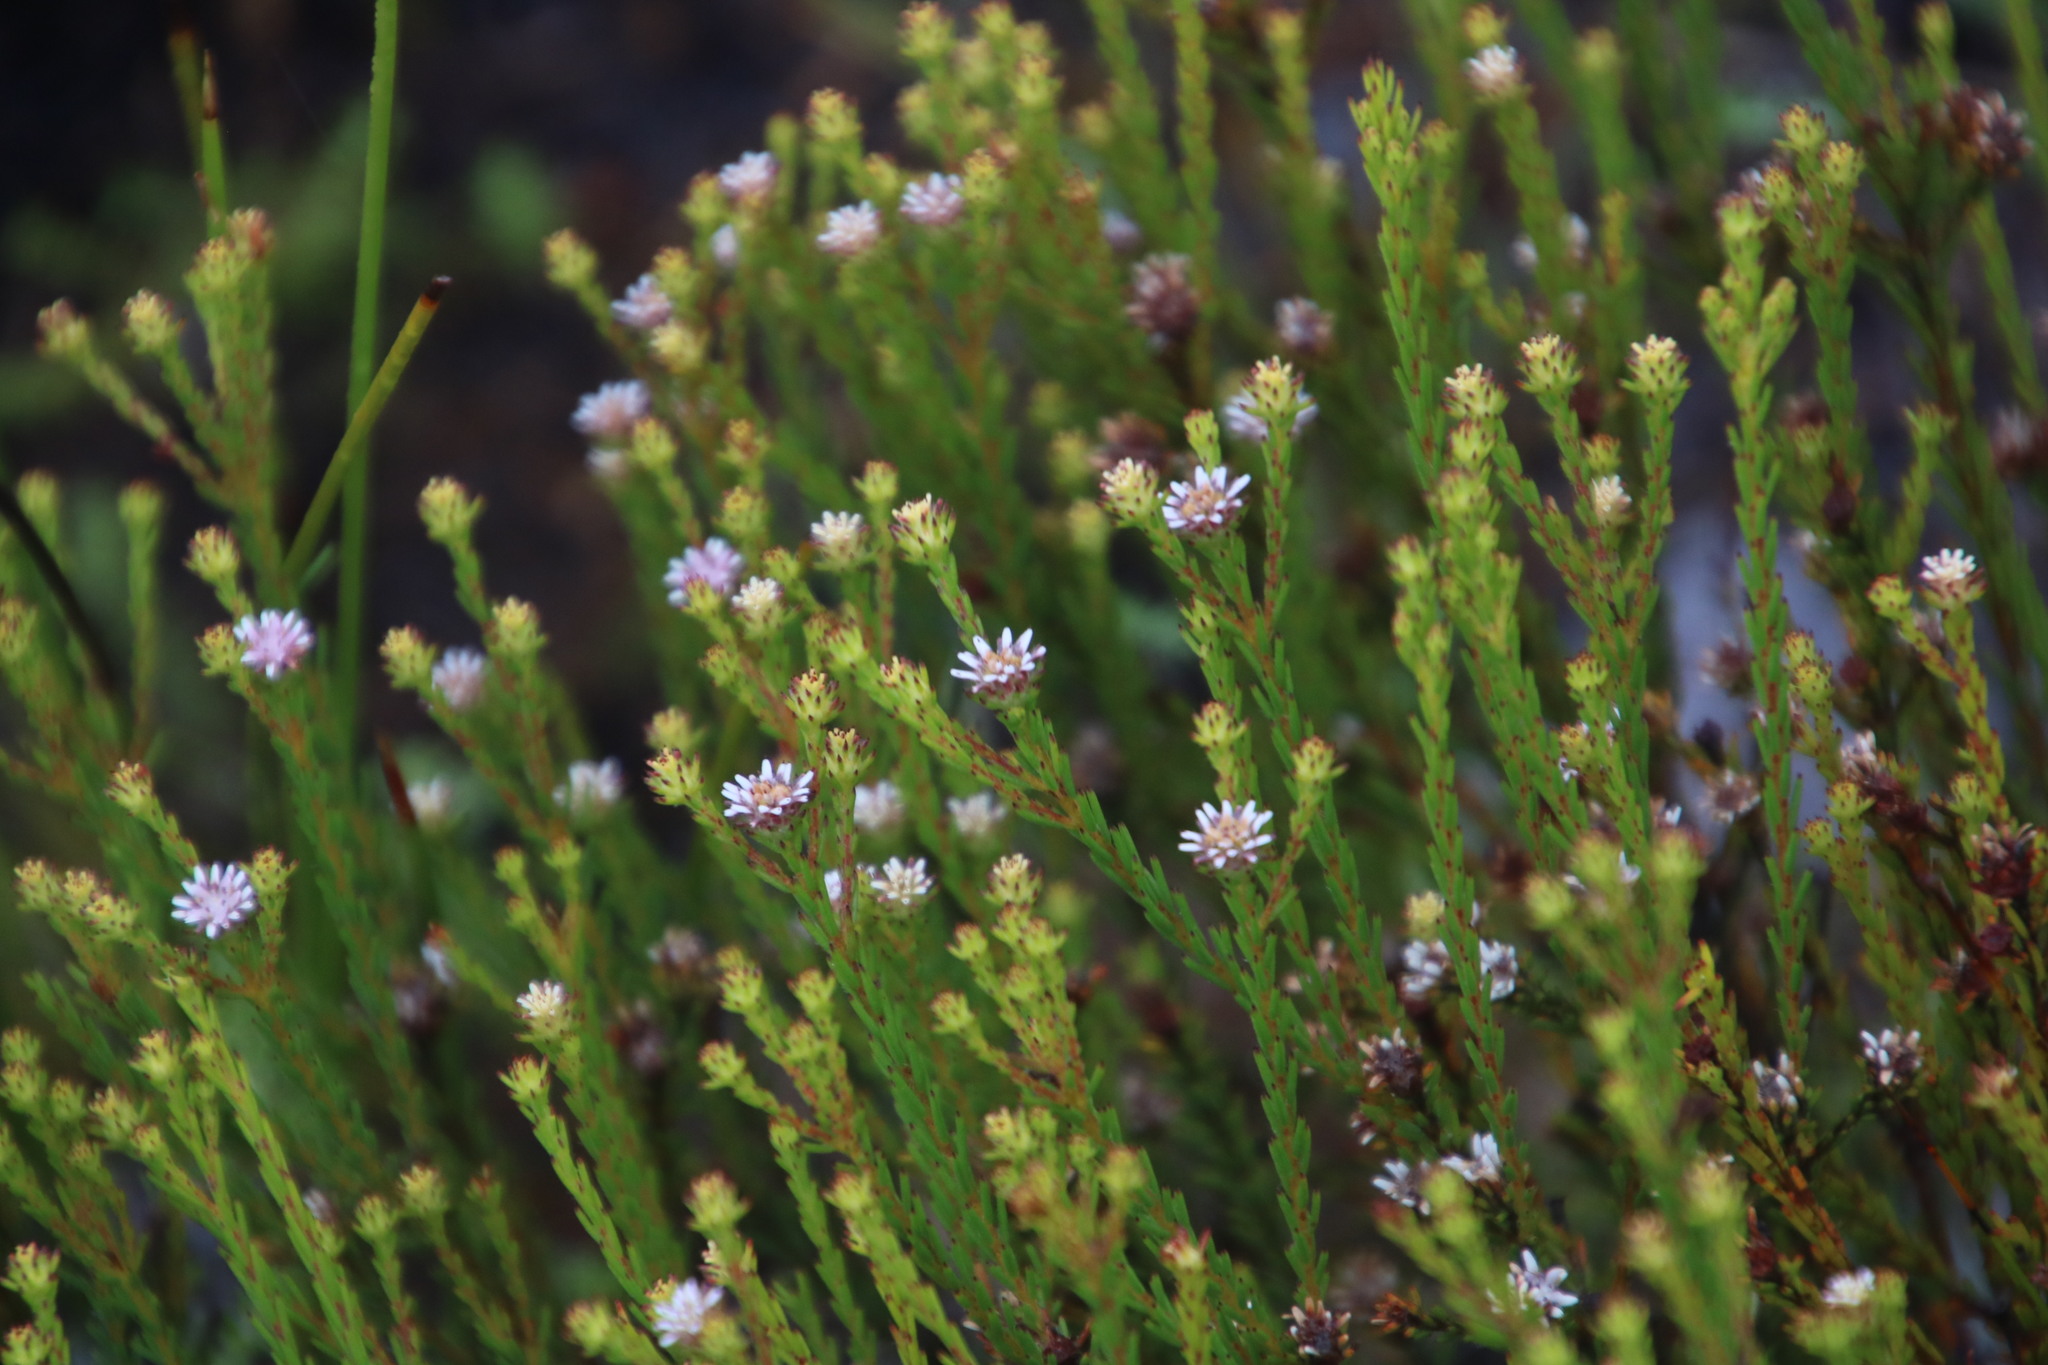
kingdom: Plantae
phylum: Tracheophyta
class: Magnoliopsida
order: Bruniales
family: Bruniaceae
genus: Staavia
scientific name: Staavia radiata
